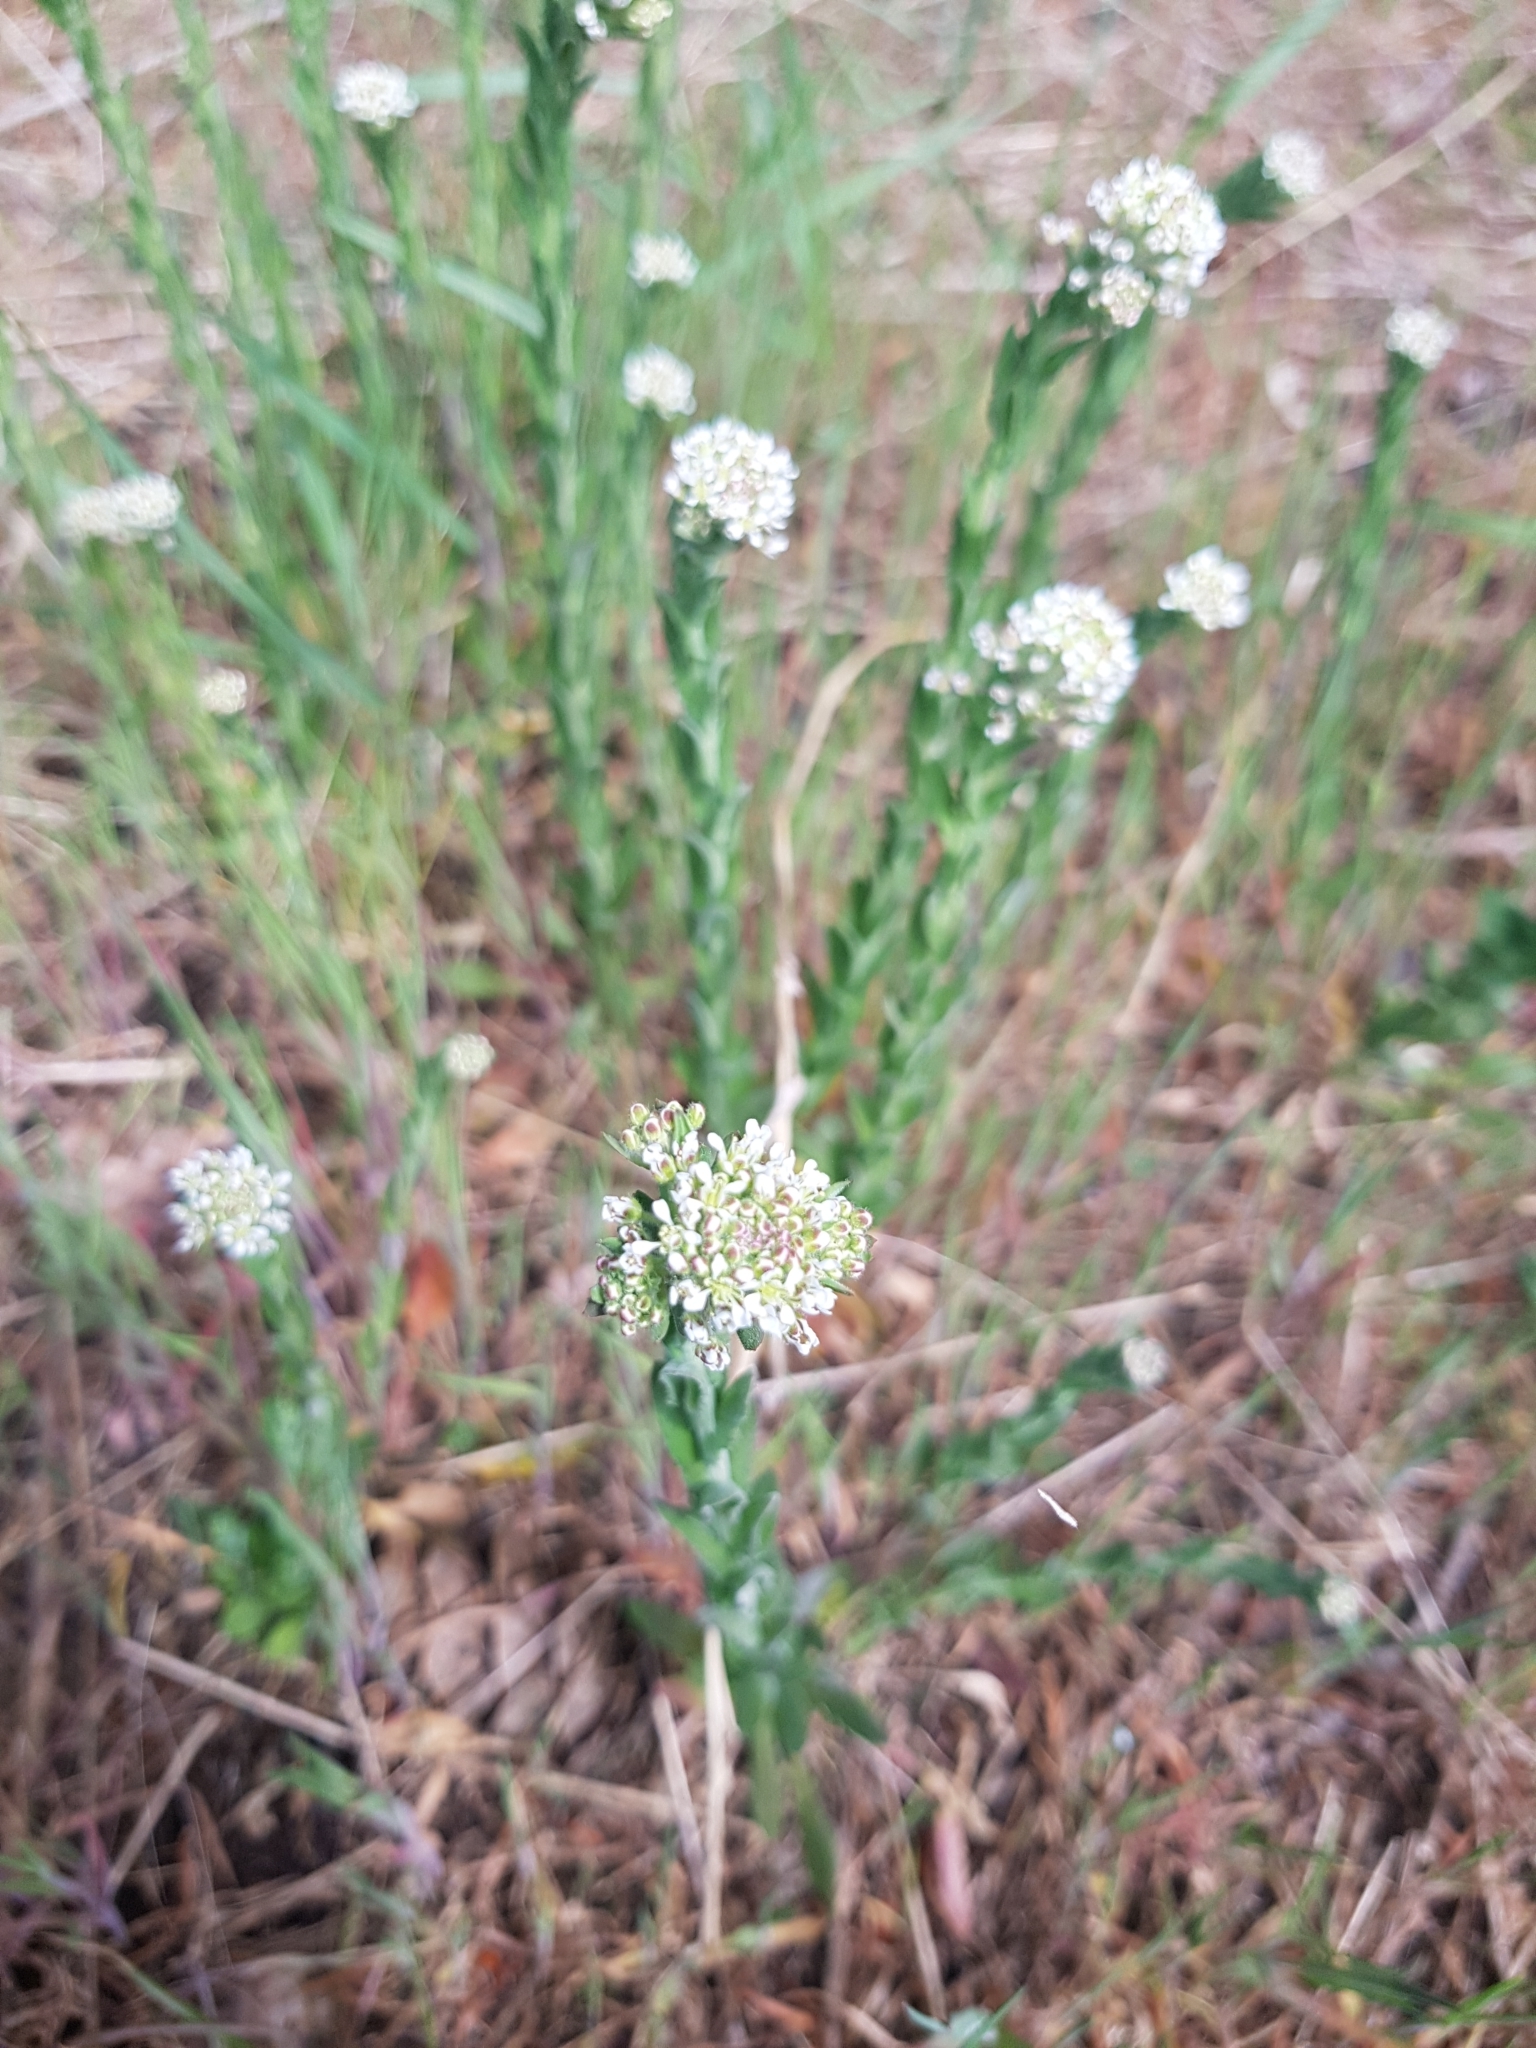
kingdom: Plantae
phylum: Tracheophyta
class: Magnoliopsida
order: Brassicales
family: Brassicaceae
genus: Lepidium
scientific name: Lepidium campestre
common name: Field pepperwort
